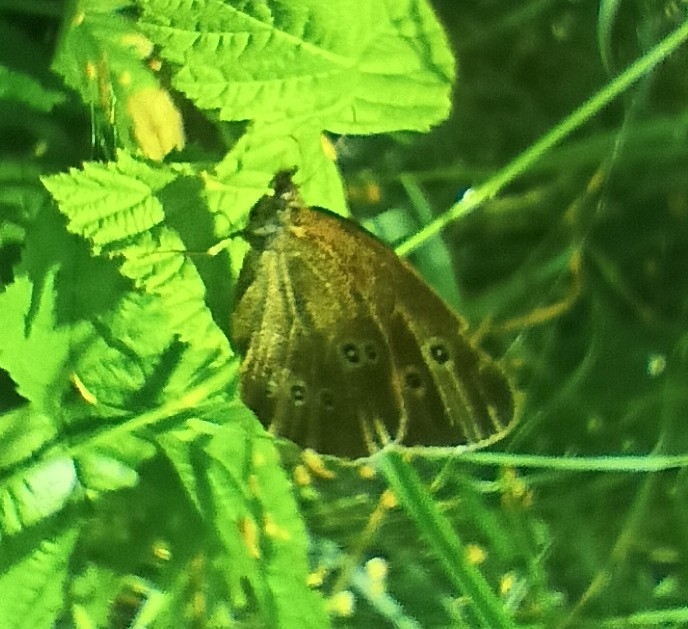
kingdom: Animalia
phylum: Arthropoda
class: Insecta
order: Lepidoptera
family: Nymphalidae
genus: Aphantopus
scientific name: Aphantopus hyperantus
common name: Ringlet
